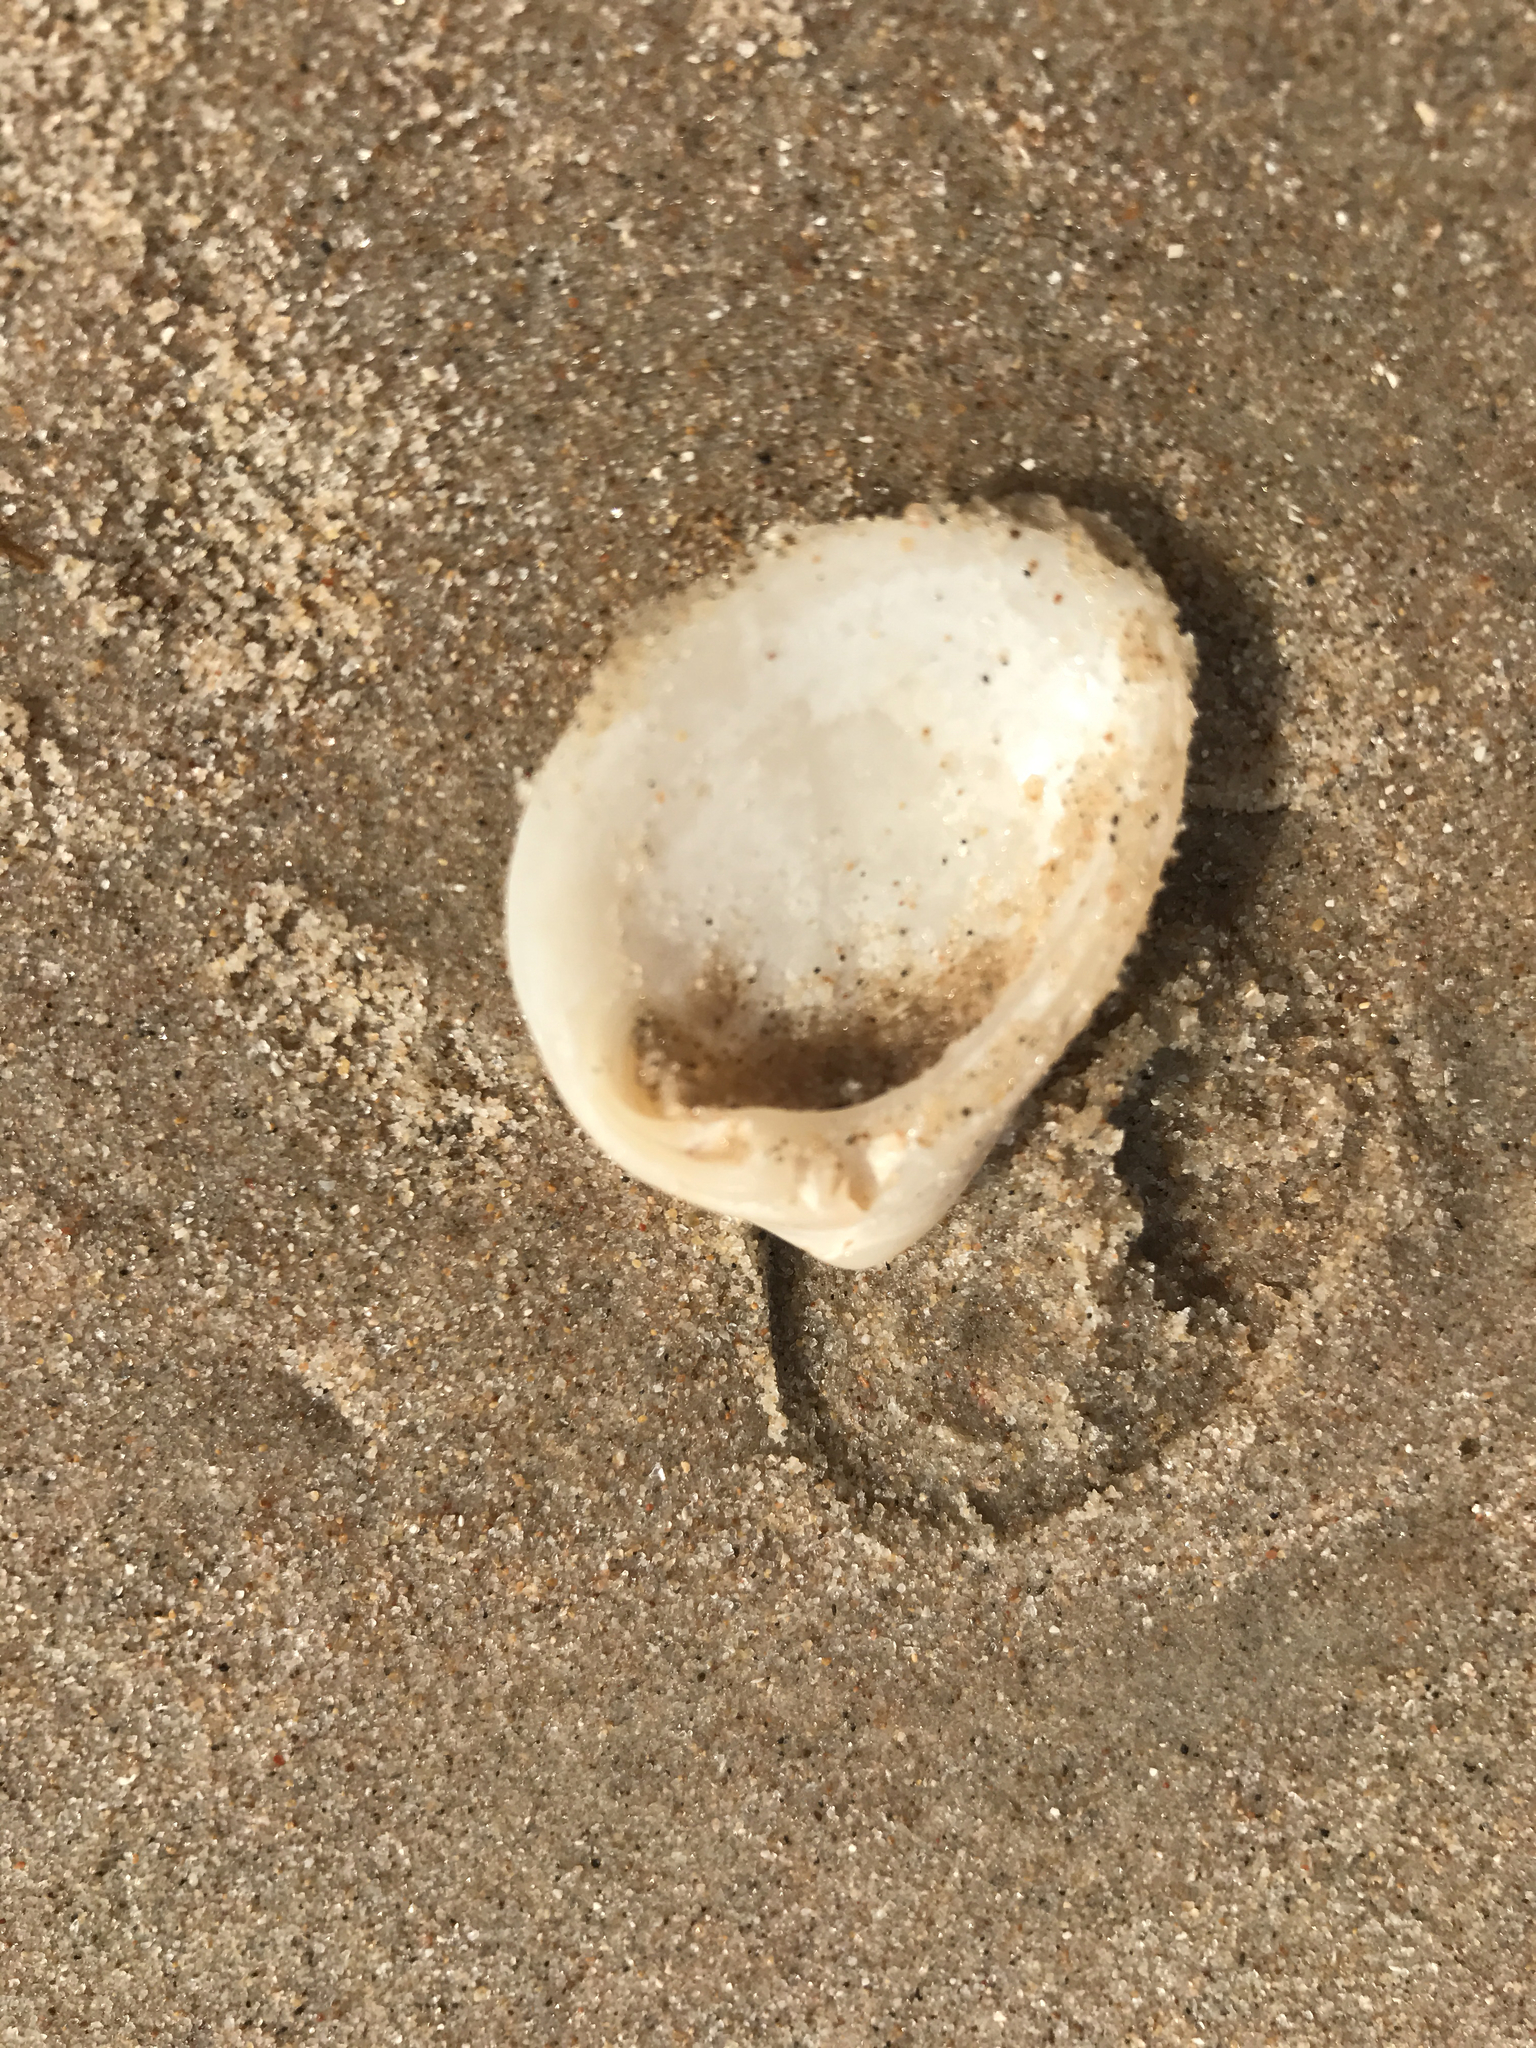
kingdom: Animalia
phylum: Mollusca
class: Bivalvia
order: Venerida
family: Mactridae
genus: Rangia
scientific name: Rangia cuneata
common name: Atlantic rangia
